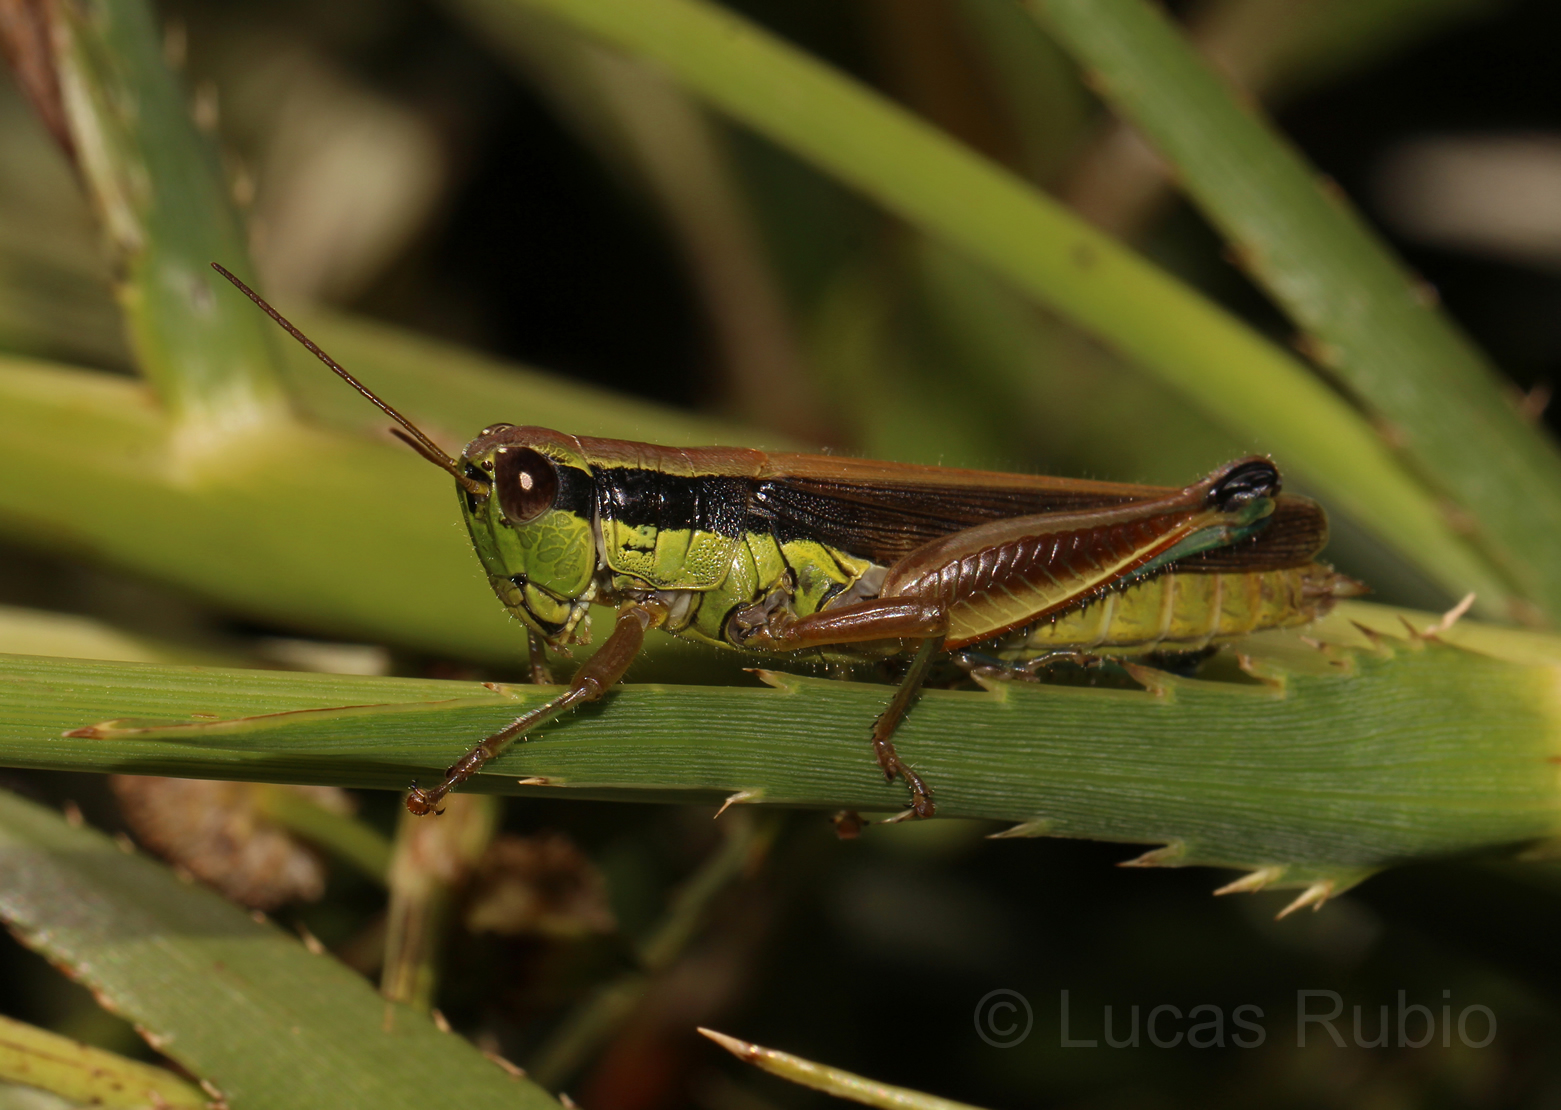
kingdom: Animalia
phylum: Arthropoda
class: Insecta
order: Orthoptera
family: Acrididae
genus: Scotussa
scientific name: Scotussa impudica
